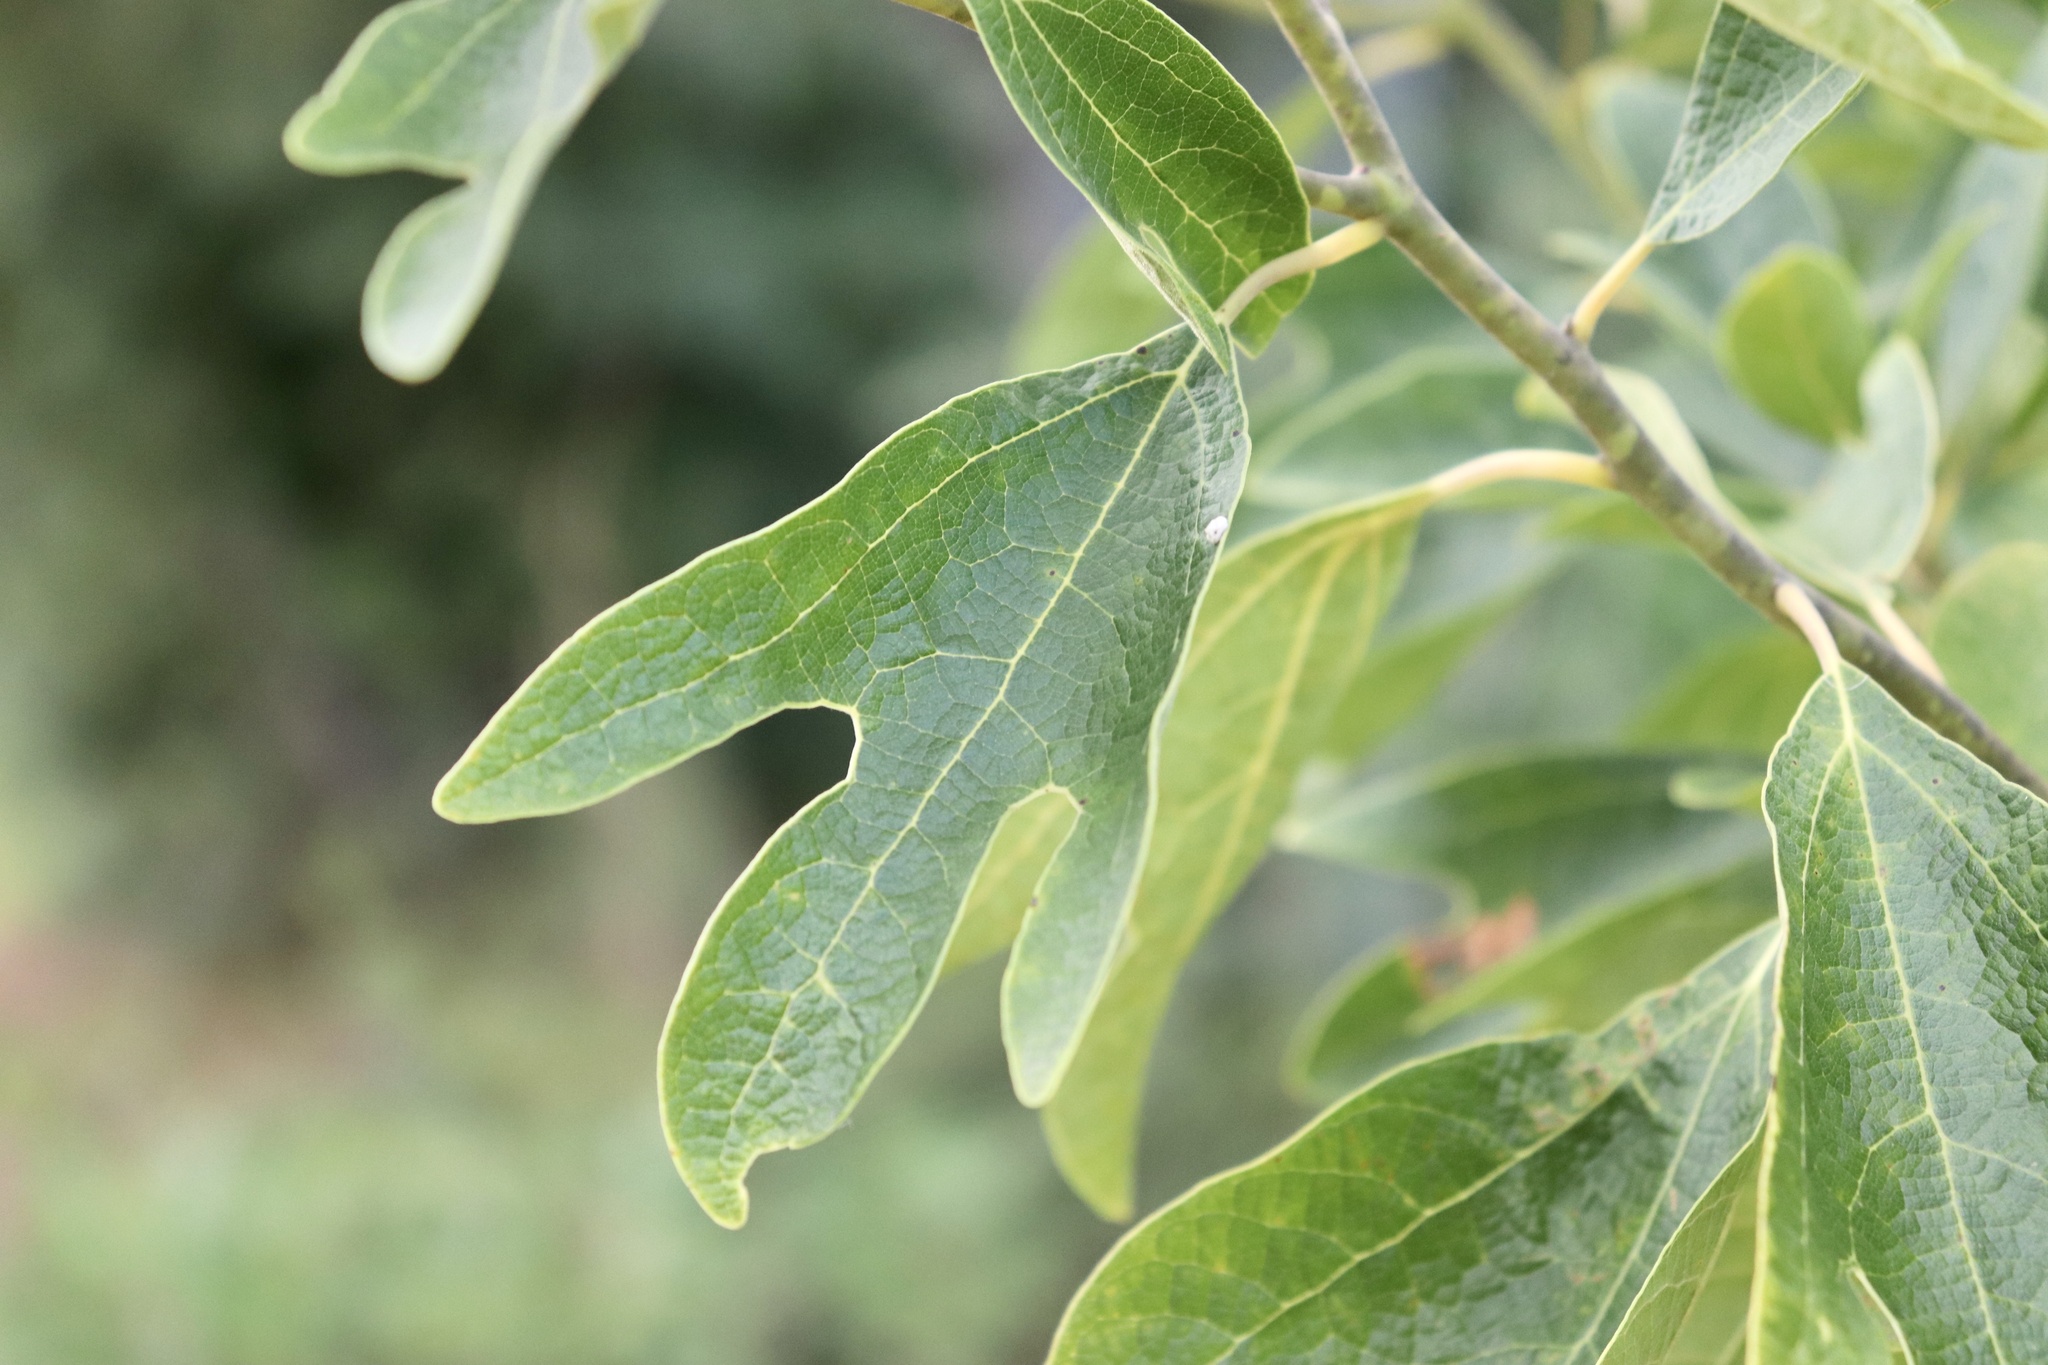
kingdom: Plantae
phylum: Tracheophyta
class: Magnoliopsida
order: Laurales
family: Lauraceae
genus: Sassafras
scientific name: Sassafras albidum
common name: Sassafras
